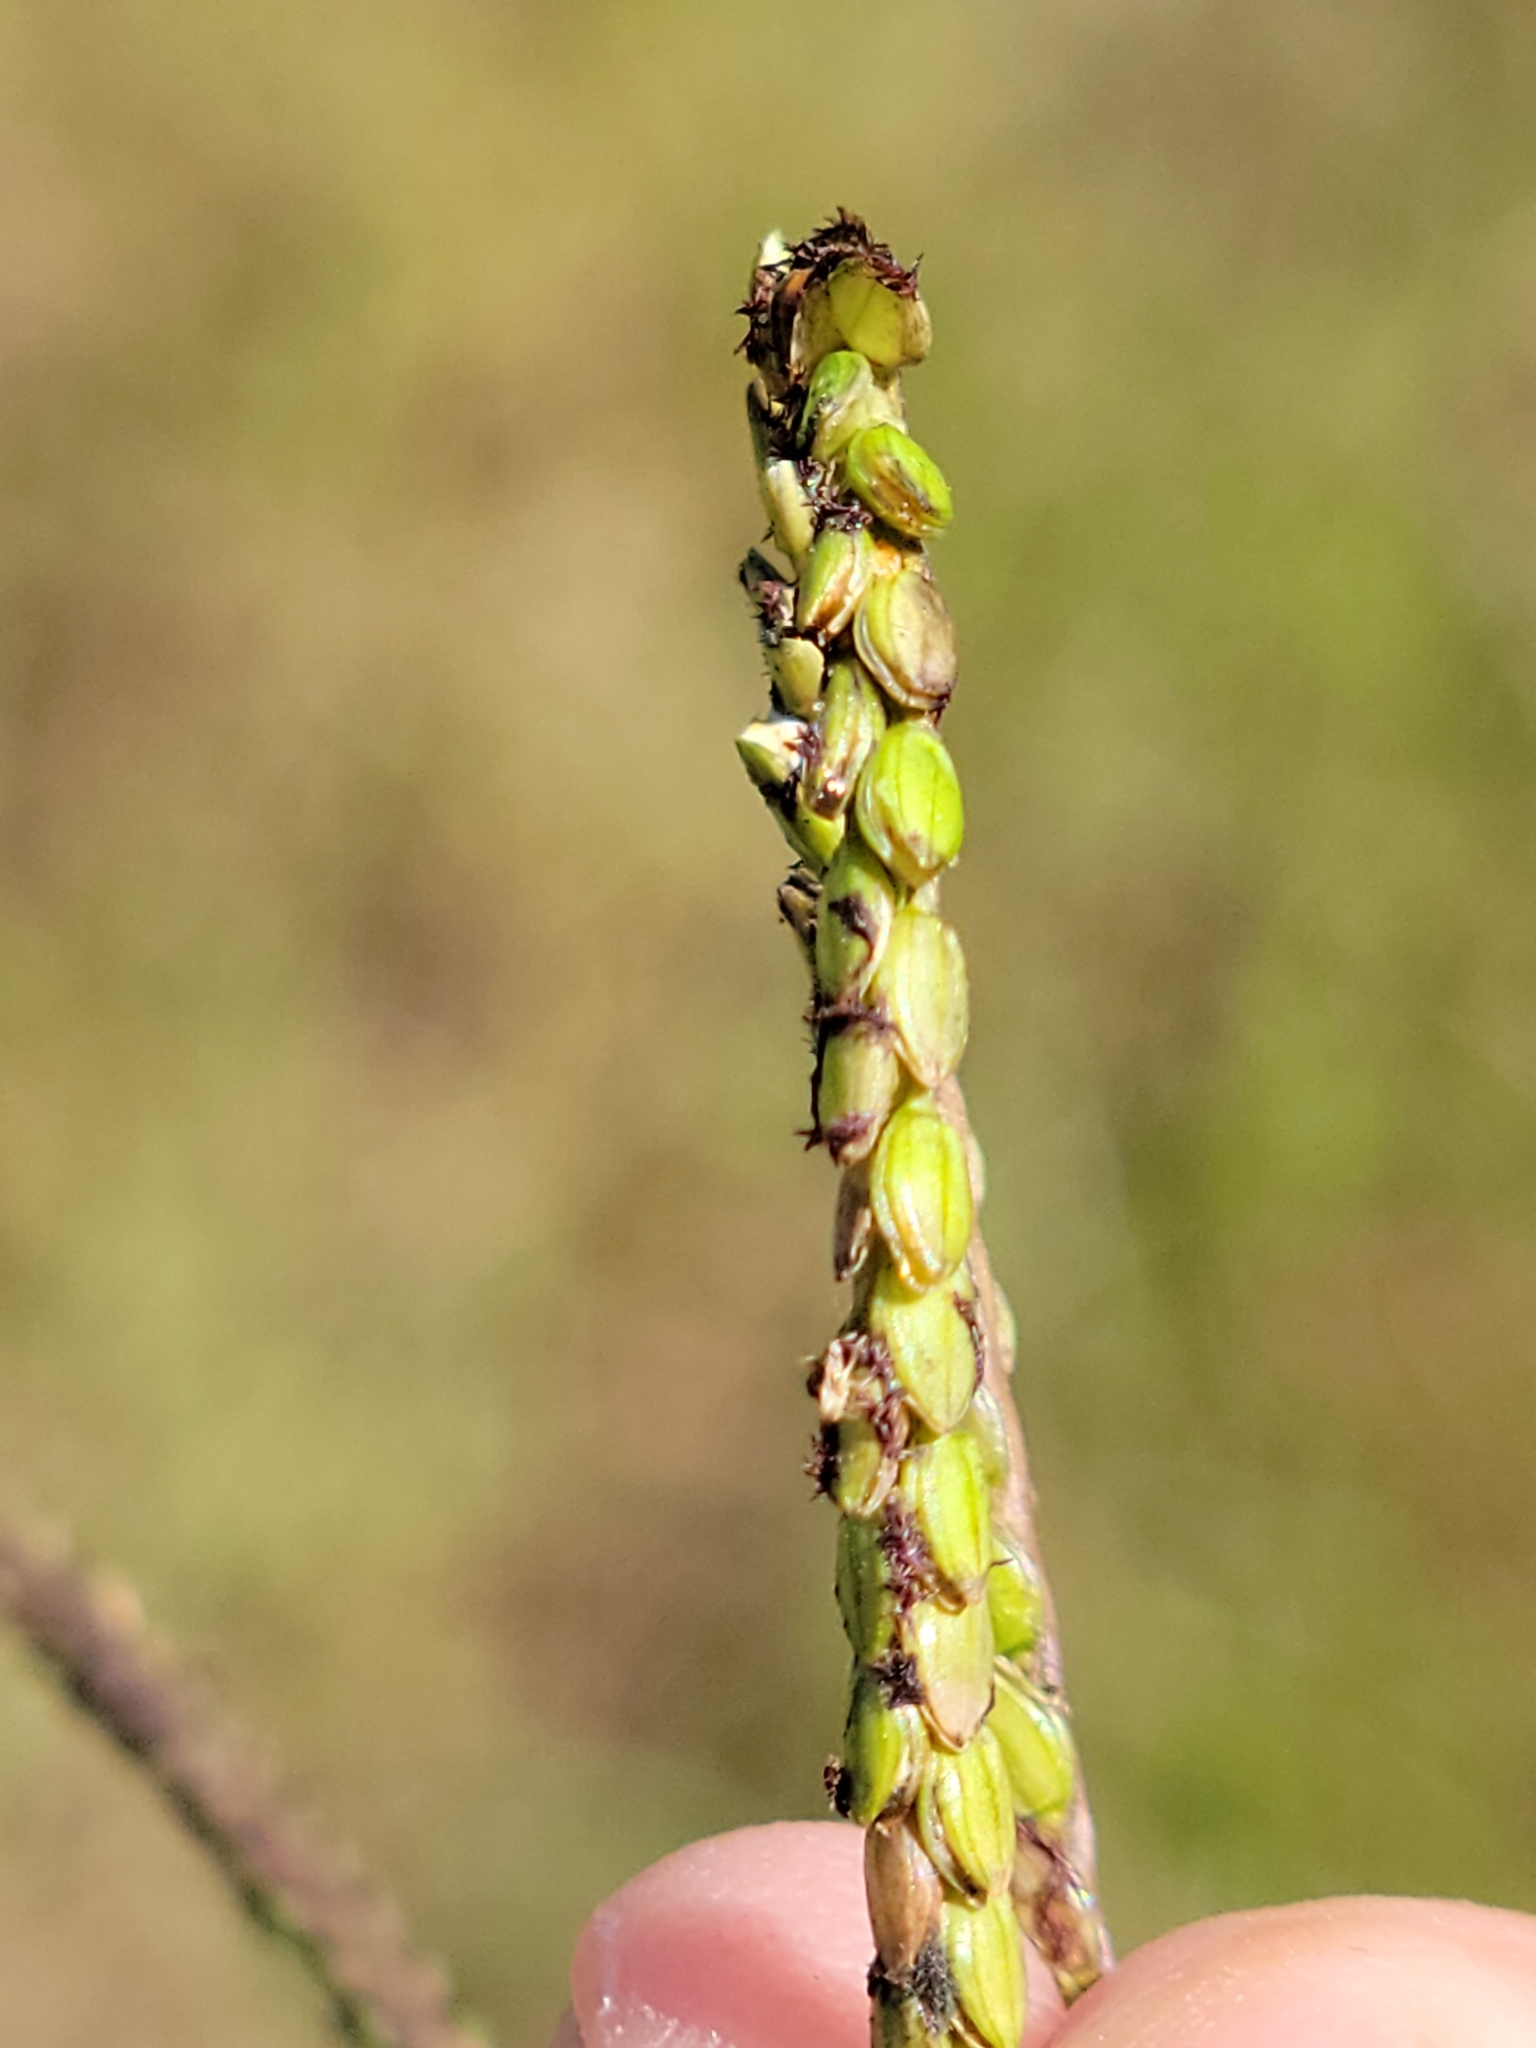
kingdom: Plantae
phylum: Tracheophyta
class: Liliopsida
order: Poales
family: Poaceae
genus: Paspalum
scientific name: Paspalum notatum
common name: Bahiagrass
